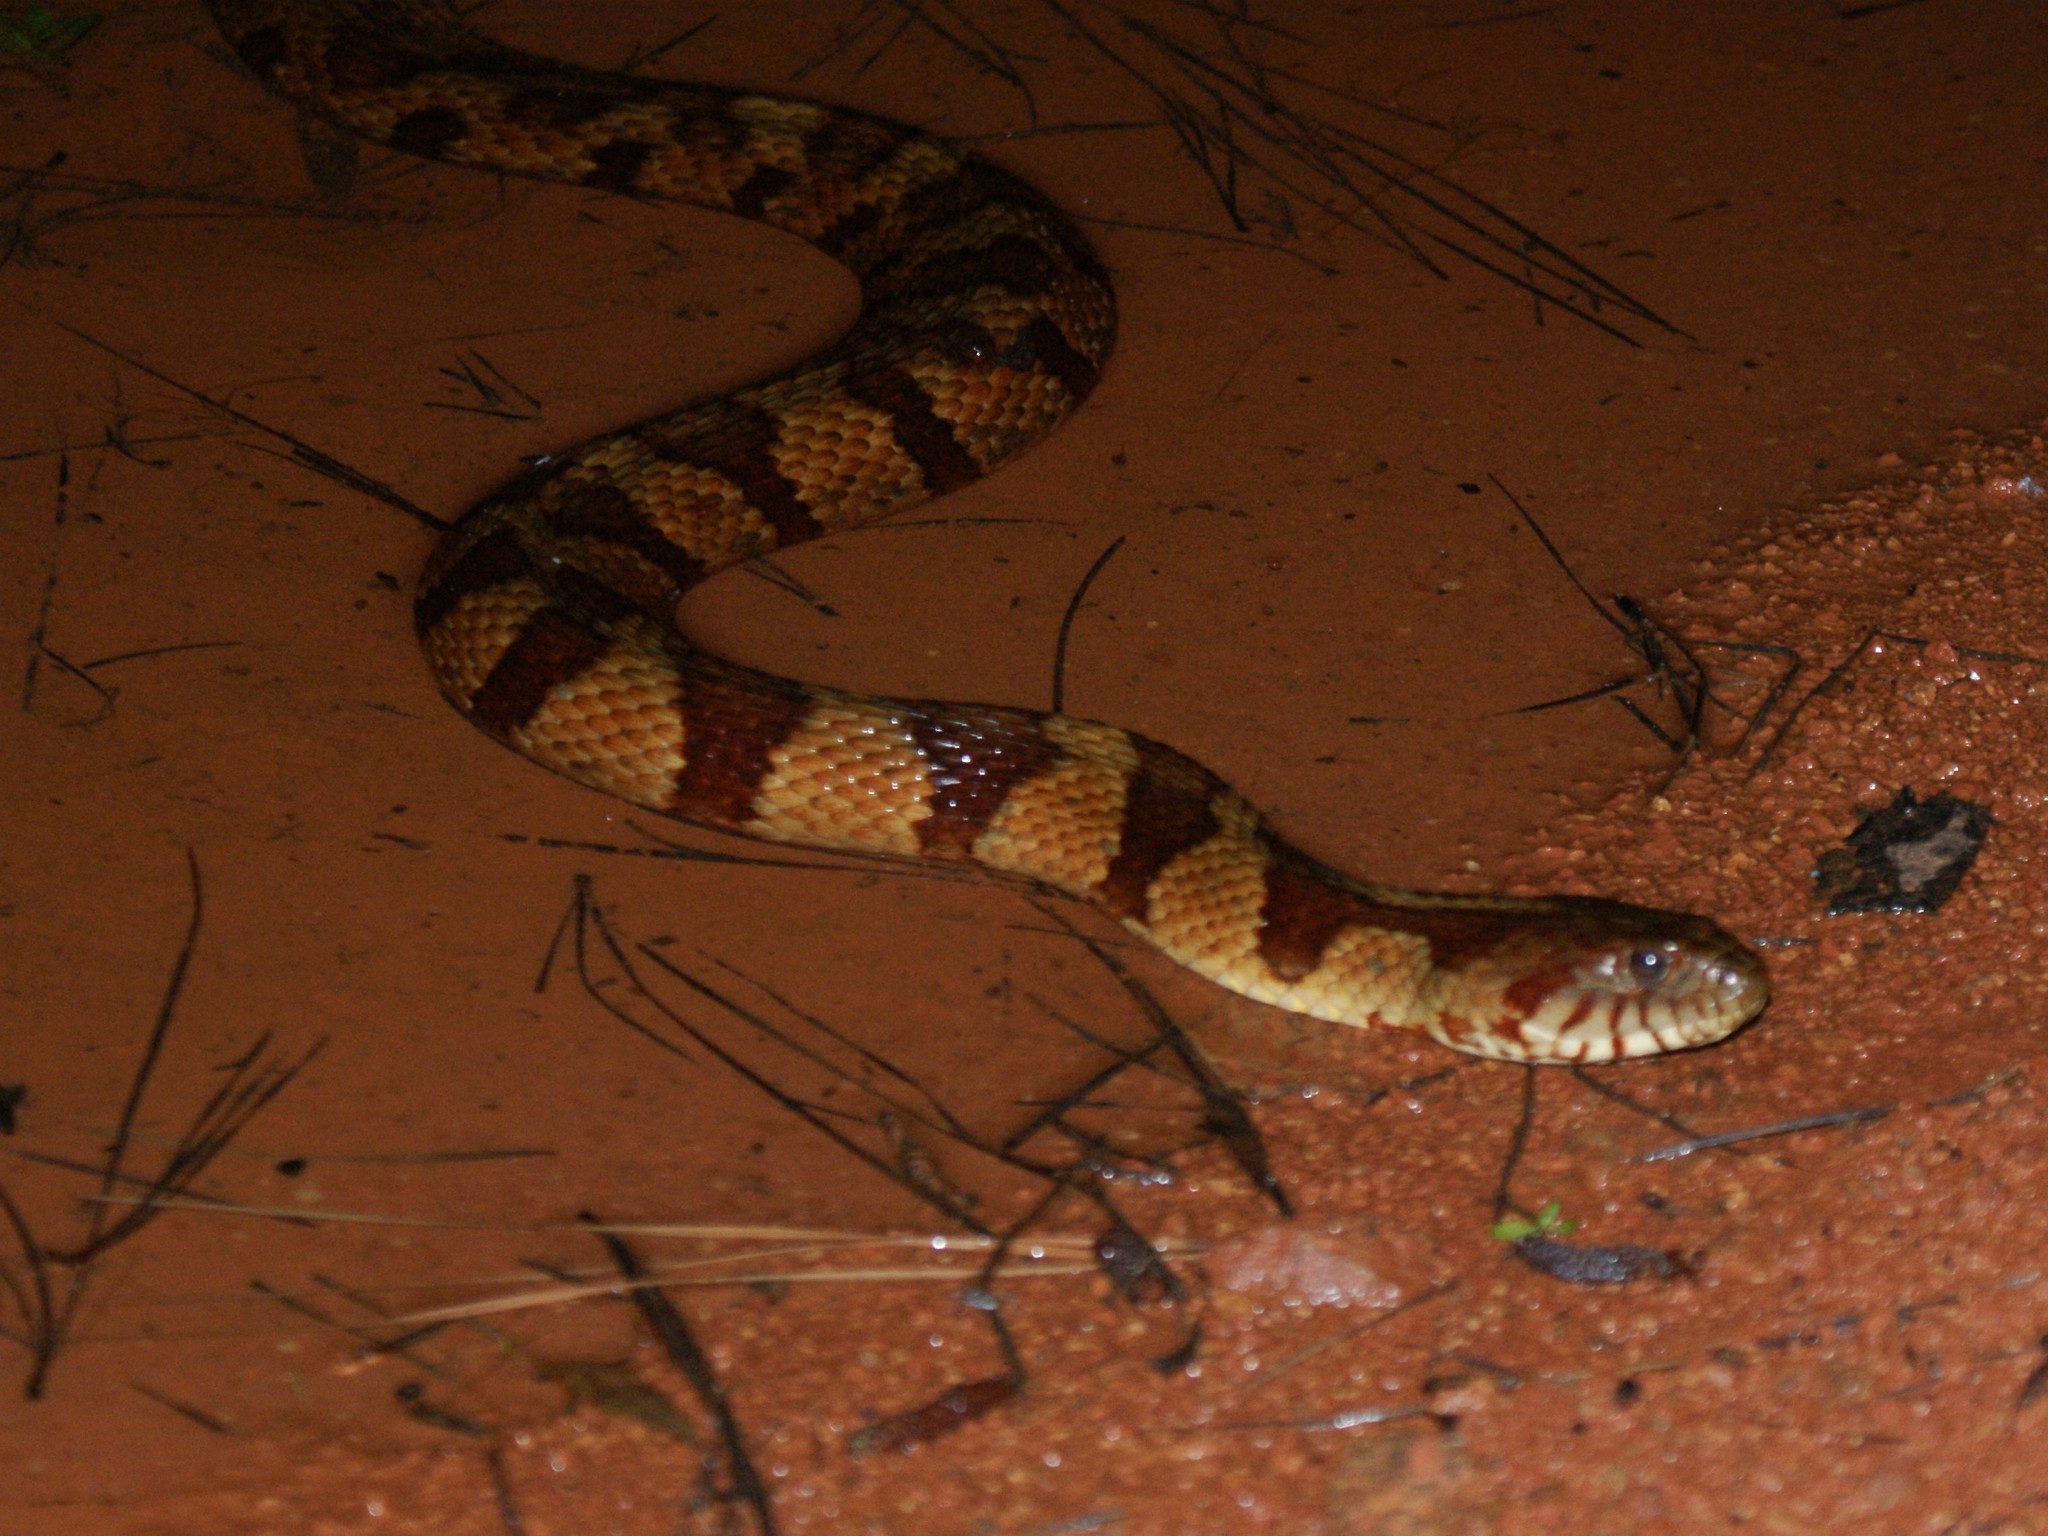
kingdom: Animalia
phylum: Chordata
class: Squamata
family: Colubridae
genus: Nerodia
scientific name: Nerodia sipedon
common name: Northern water snake
